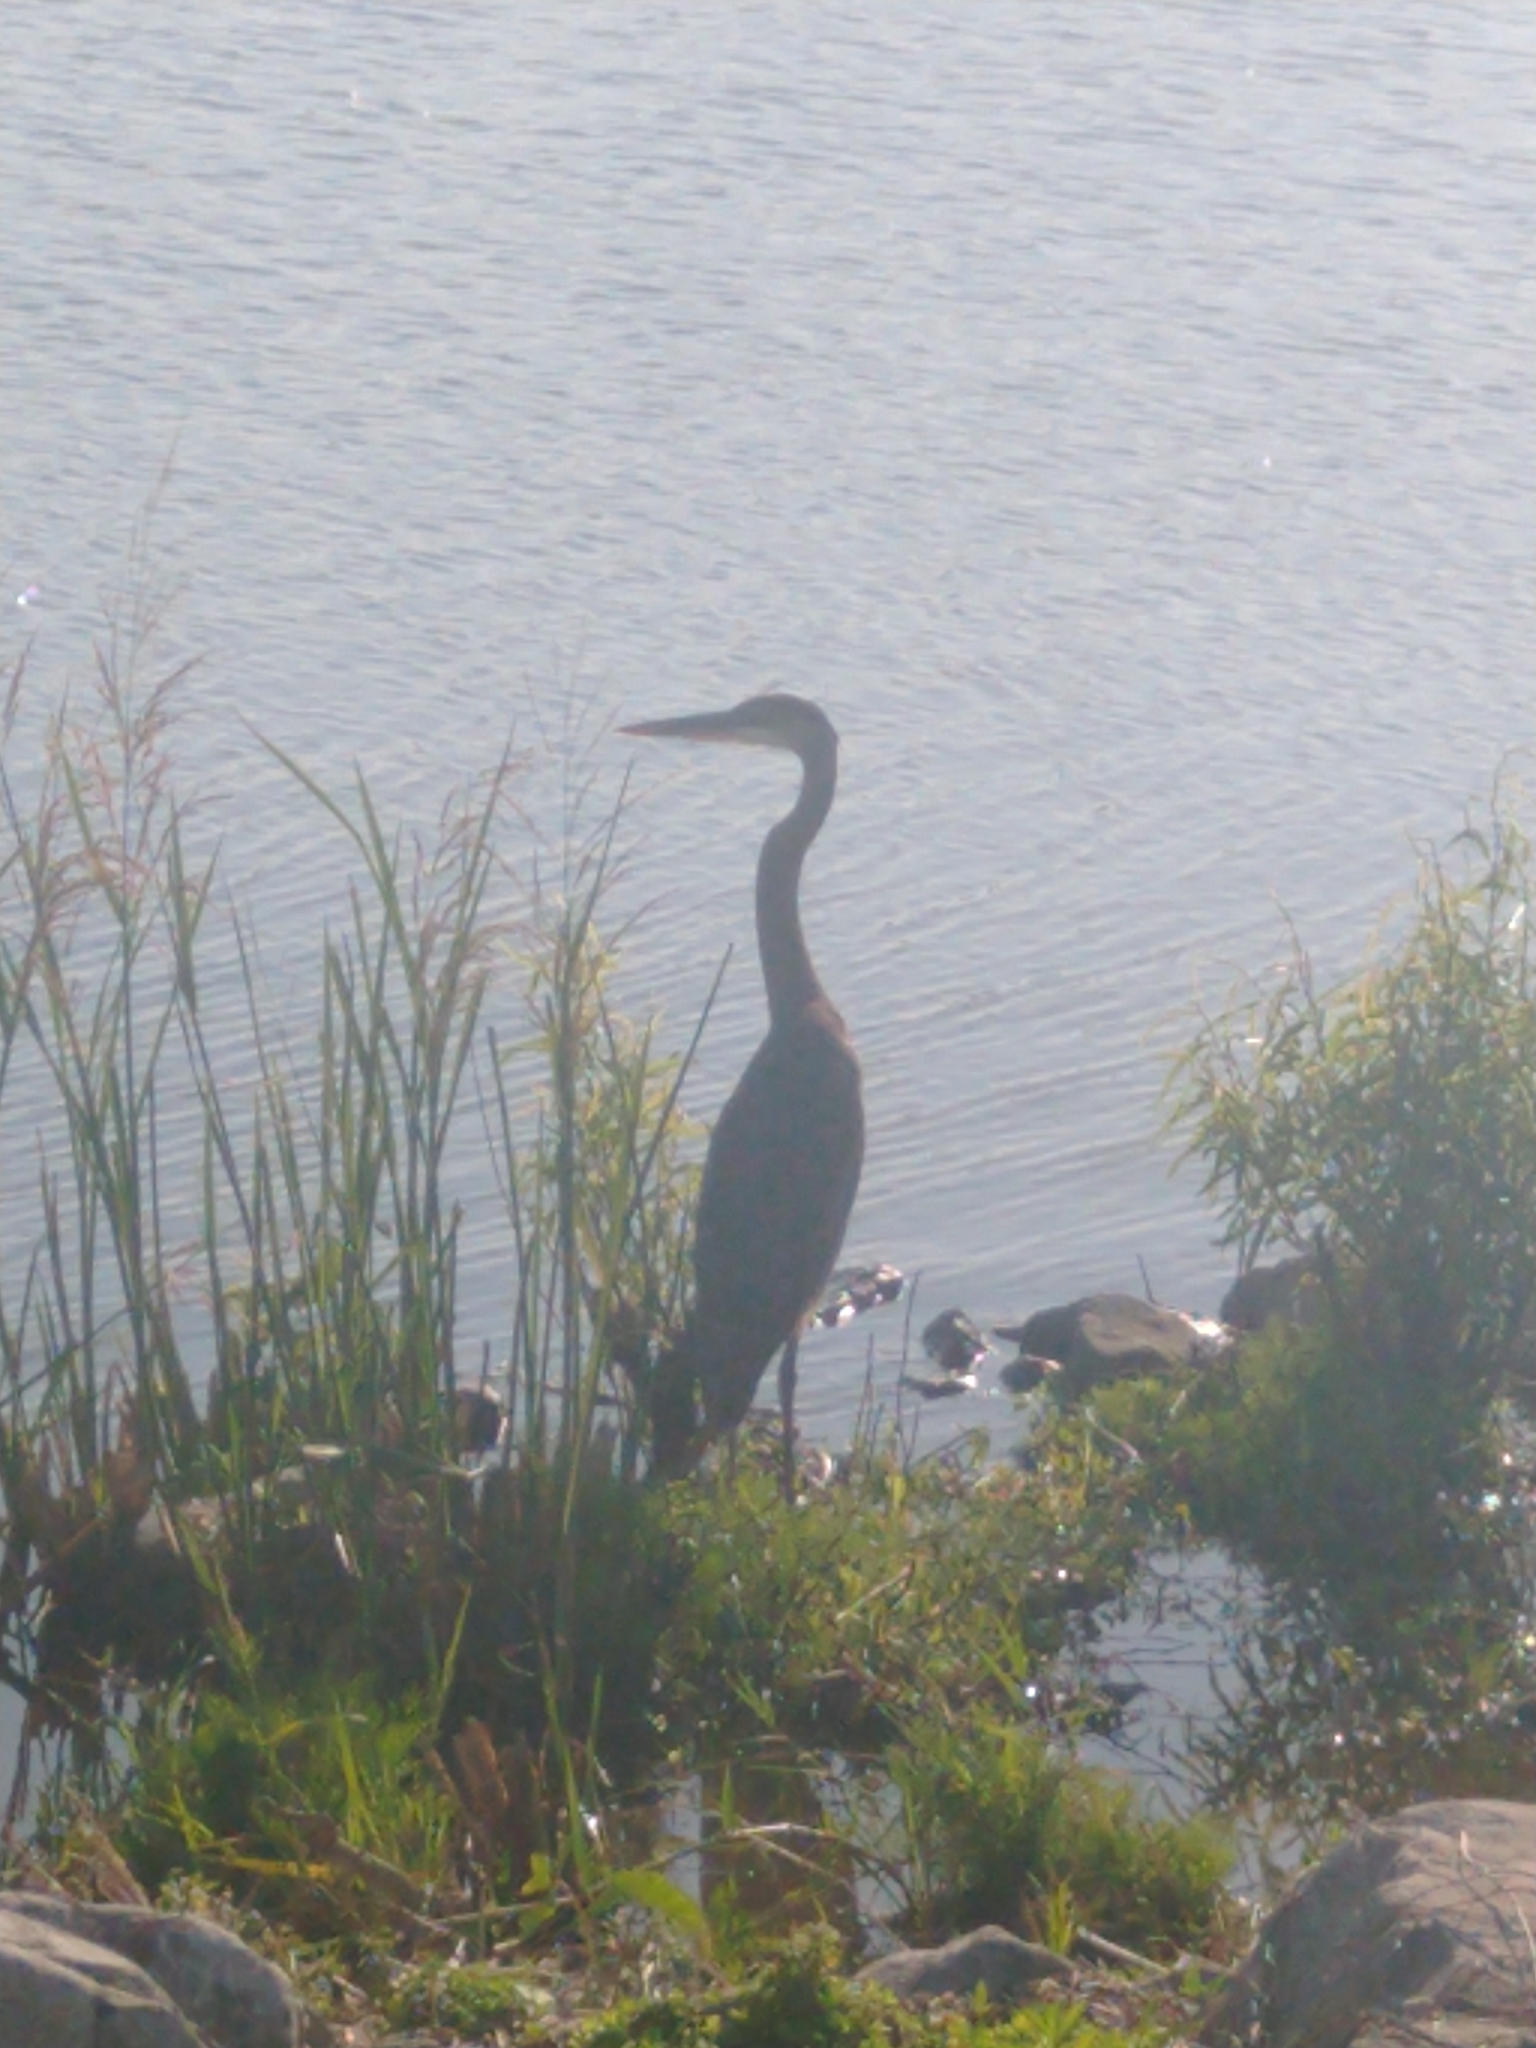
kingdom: Animalia
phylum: Chordata
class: Aves
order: Pelecaniformes
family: Ardeidae
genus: Ardea
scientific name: Ardea herodias
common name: Great blue heron
